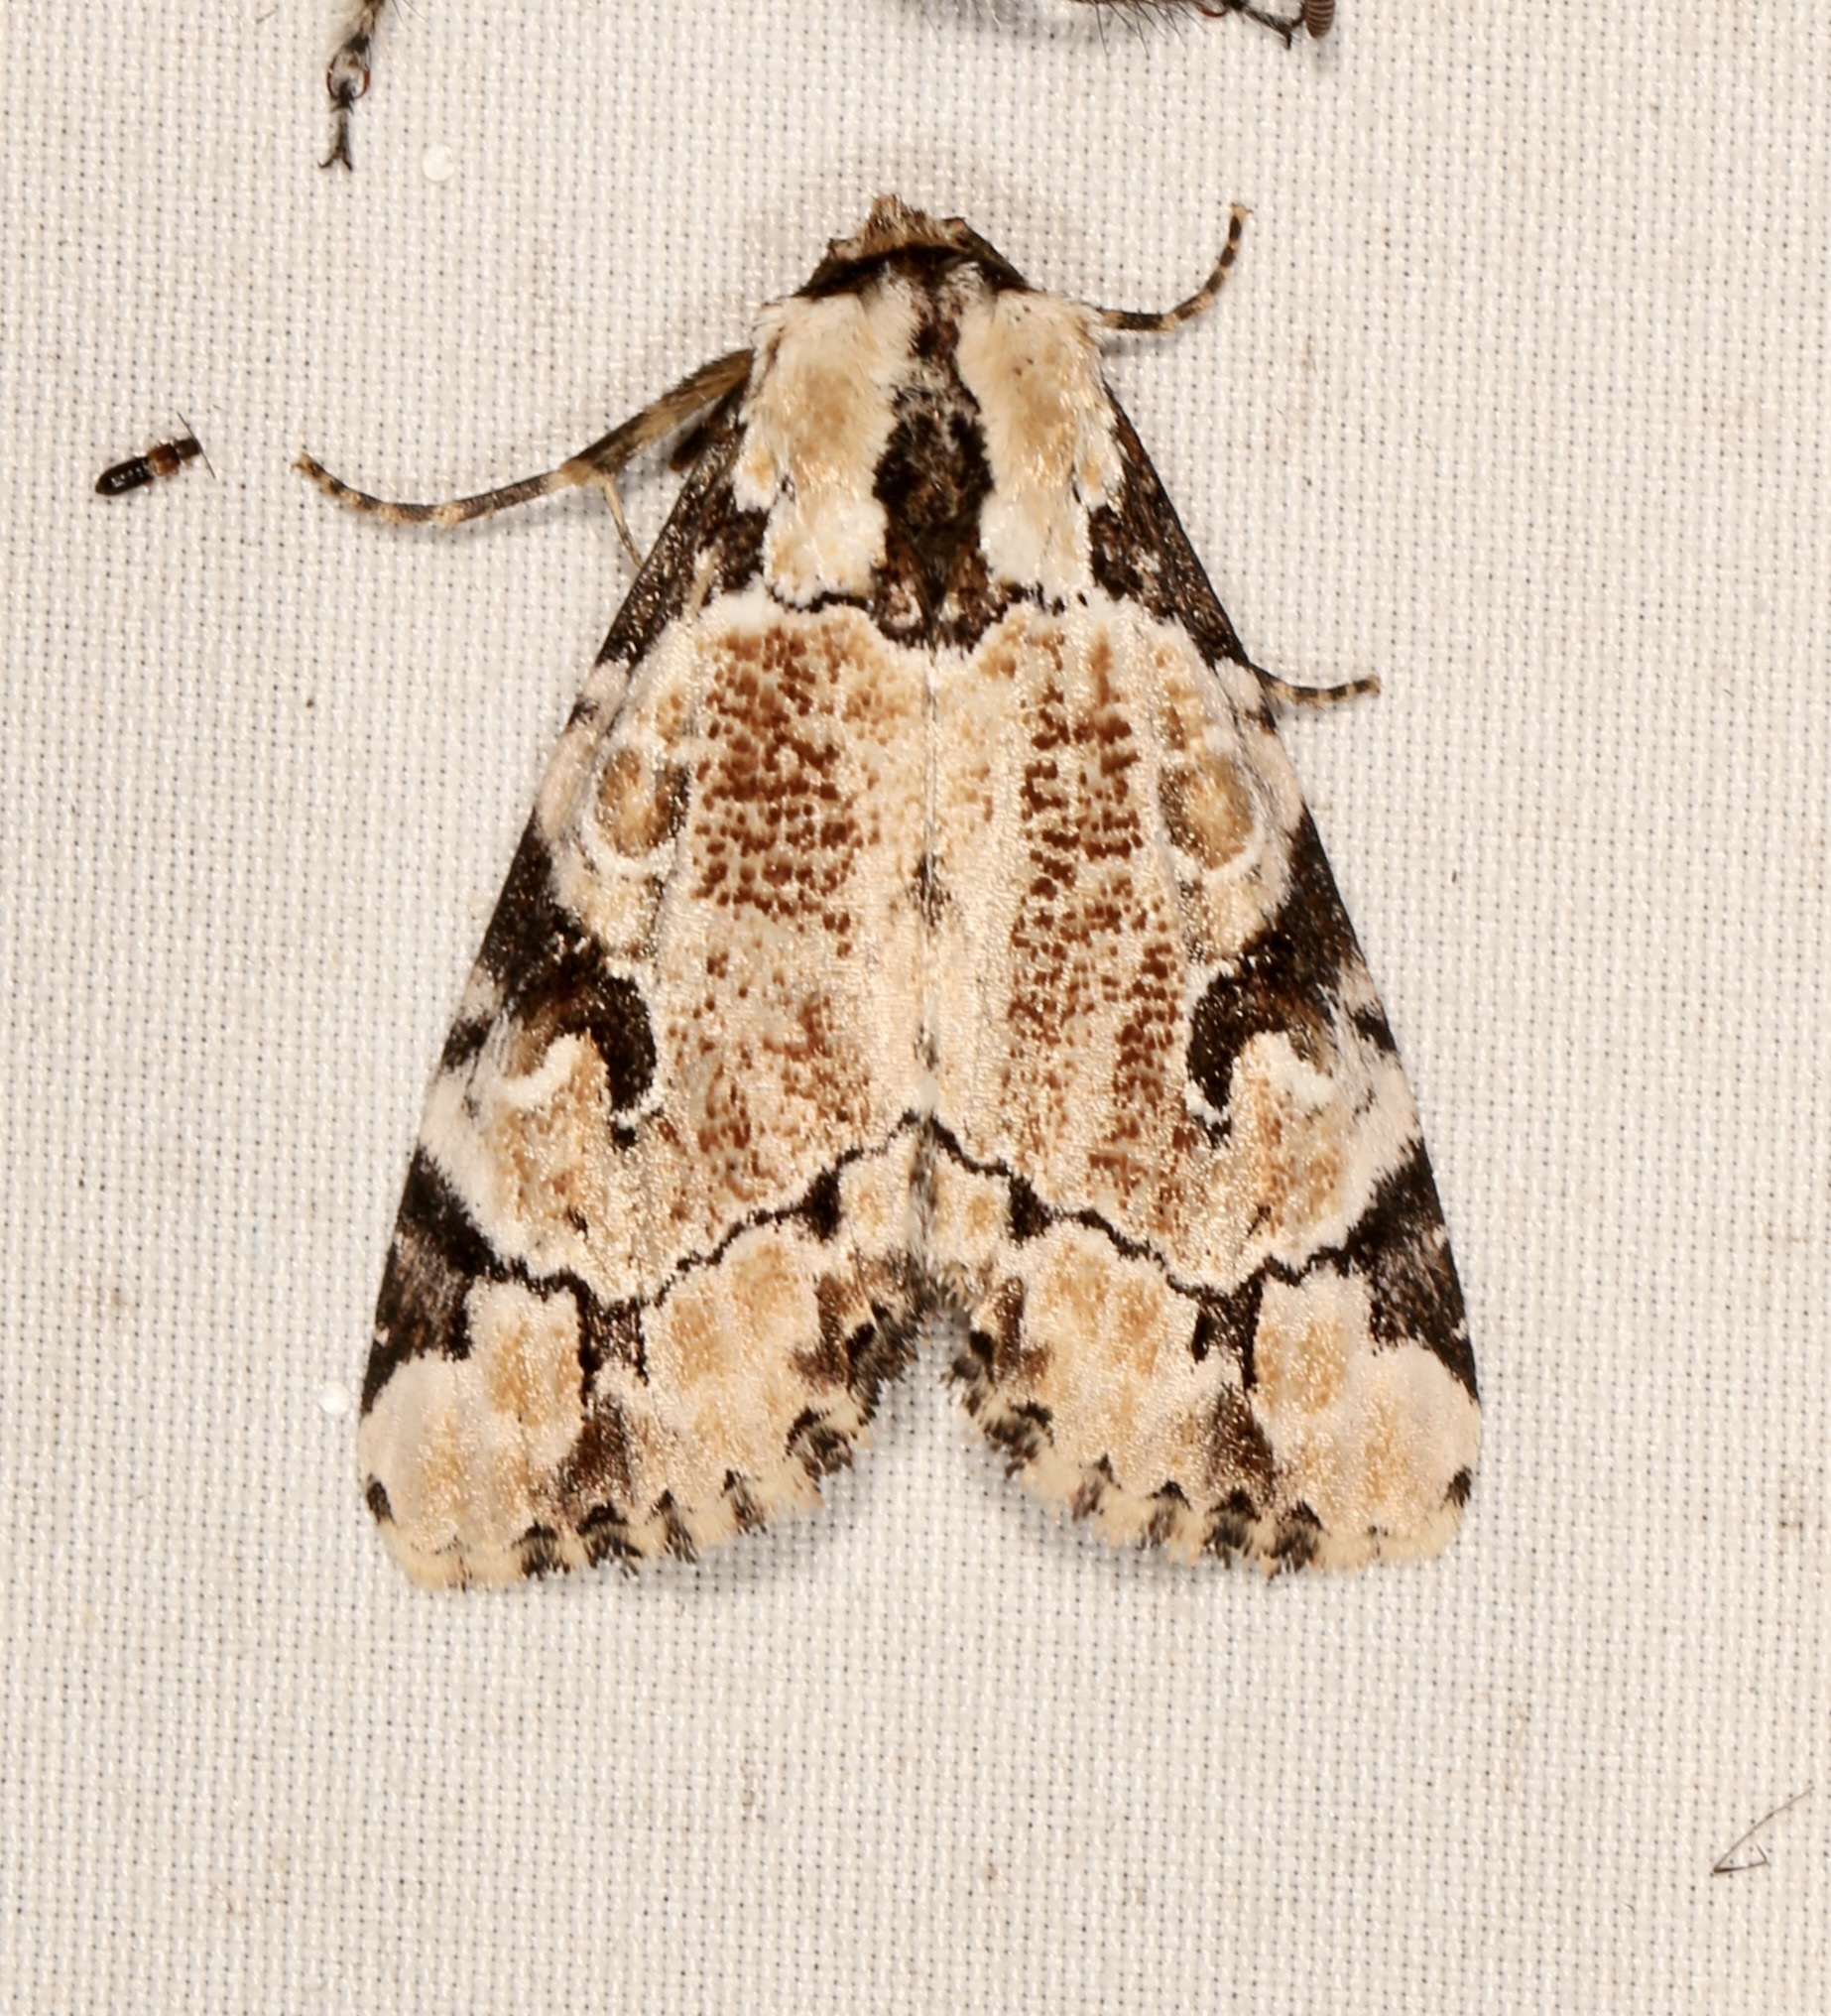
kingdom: Animalia
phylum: Arthropoda
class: Insecta
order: Lepidoptera
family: Noctuidae
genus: Stibaera
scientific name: Stibaera thyatiroides
